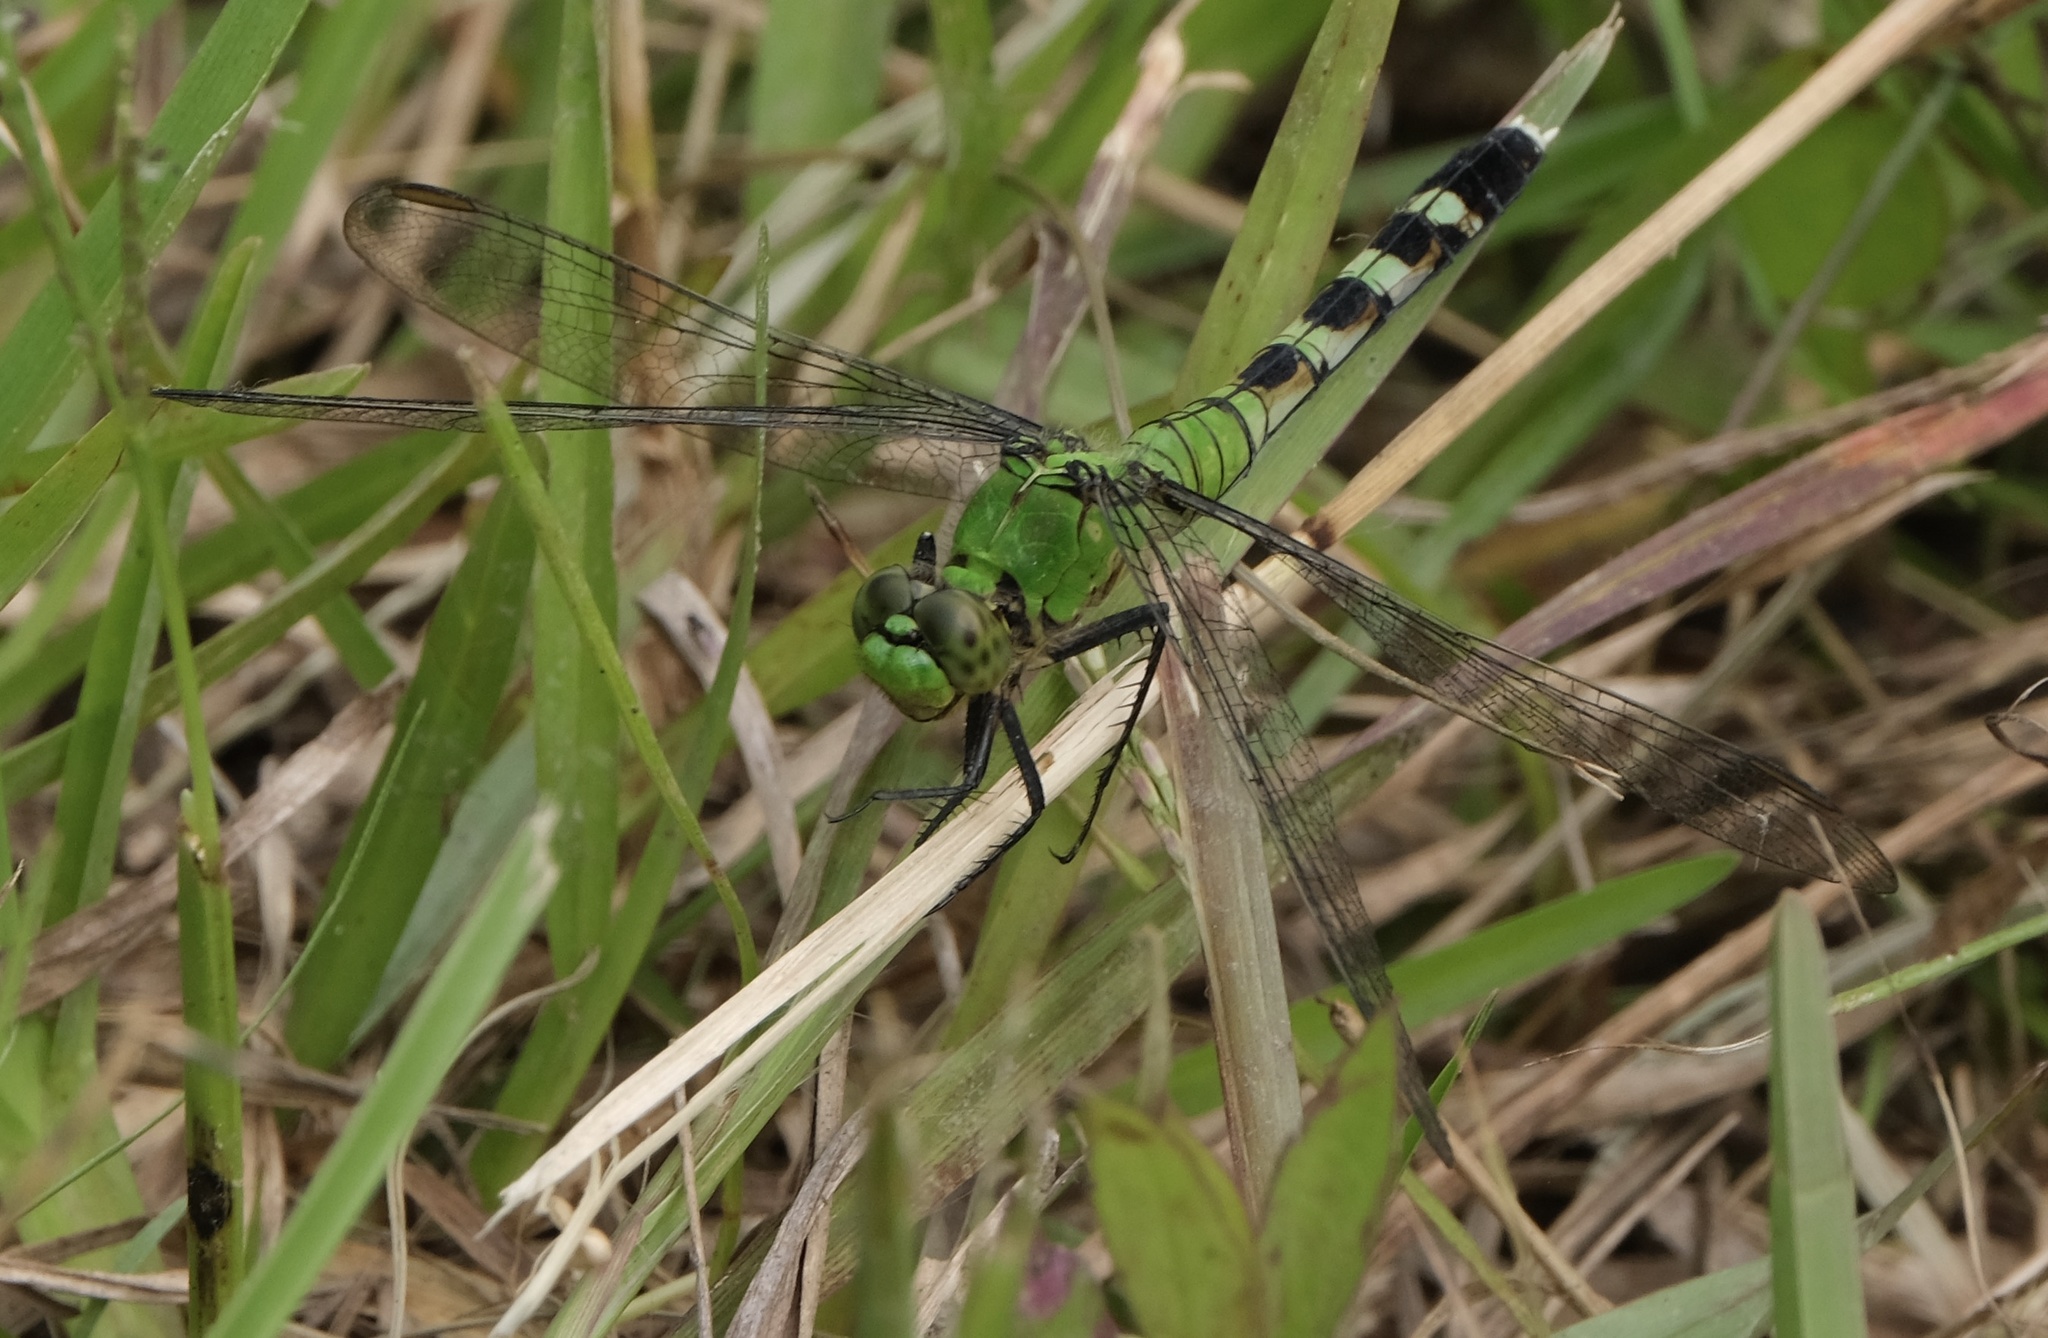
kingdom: Animalia
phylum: Arthropoda
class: Insecta
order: Odonata
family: Libellulidae
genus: Erythemis
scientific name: Erythemis simplicicollis
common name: Eastern pondhawk
